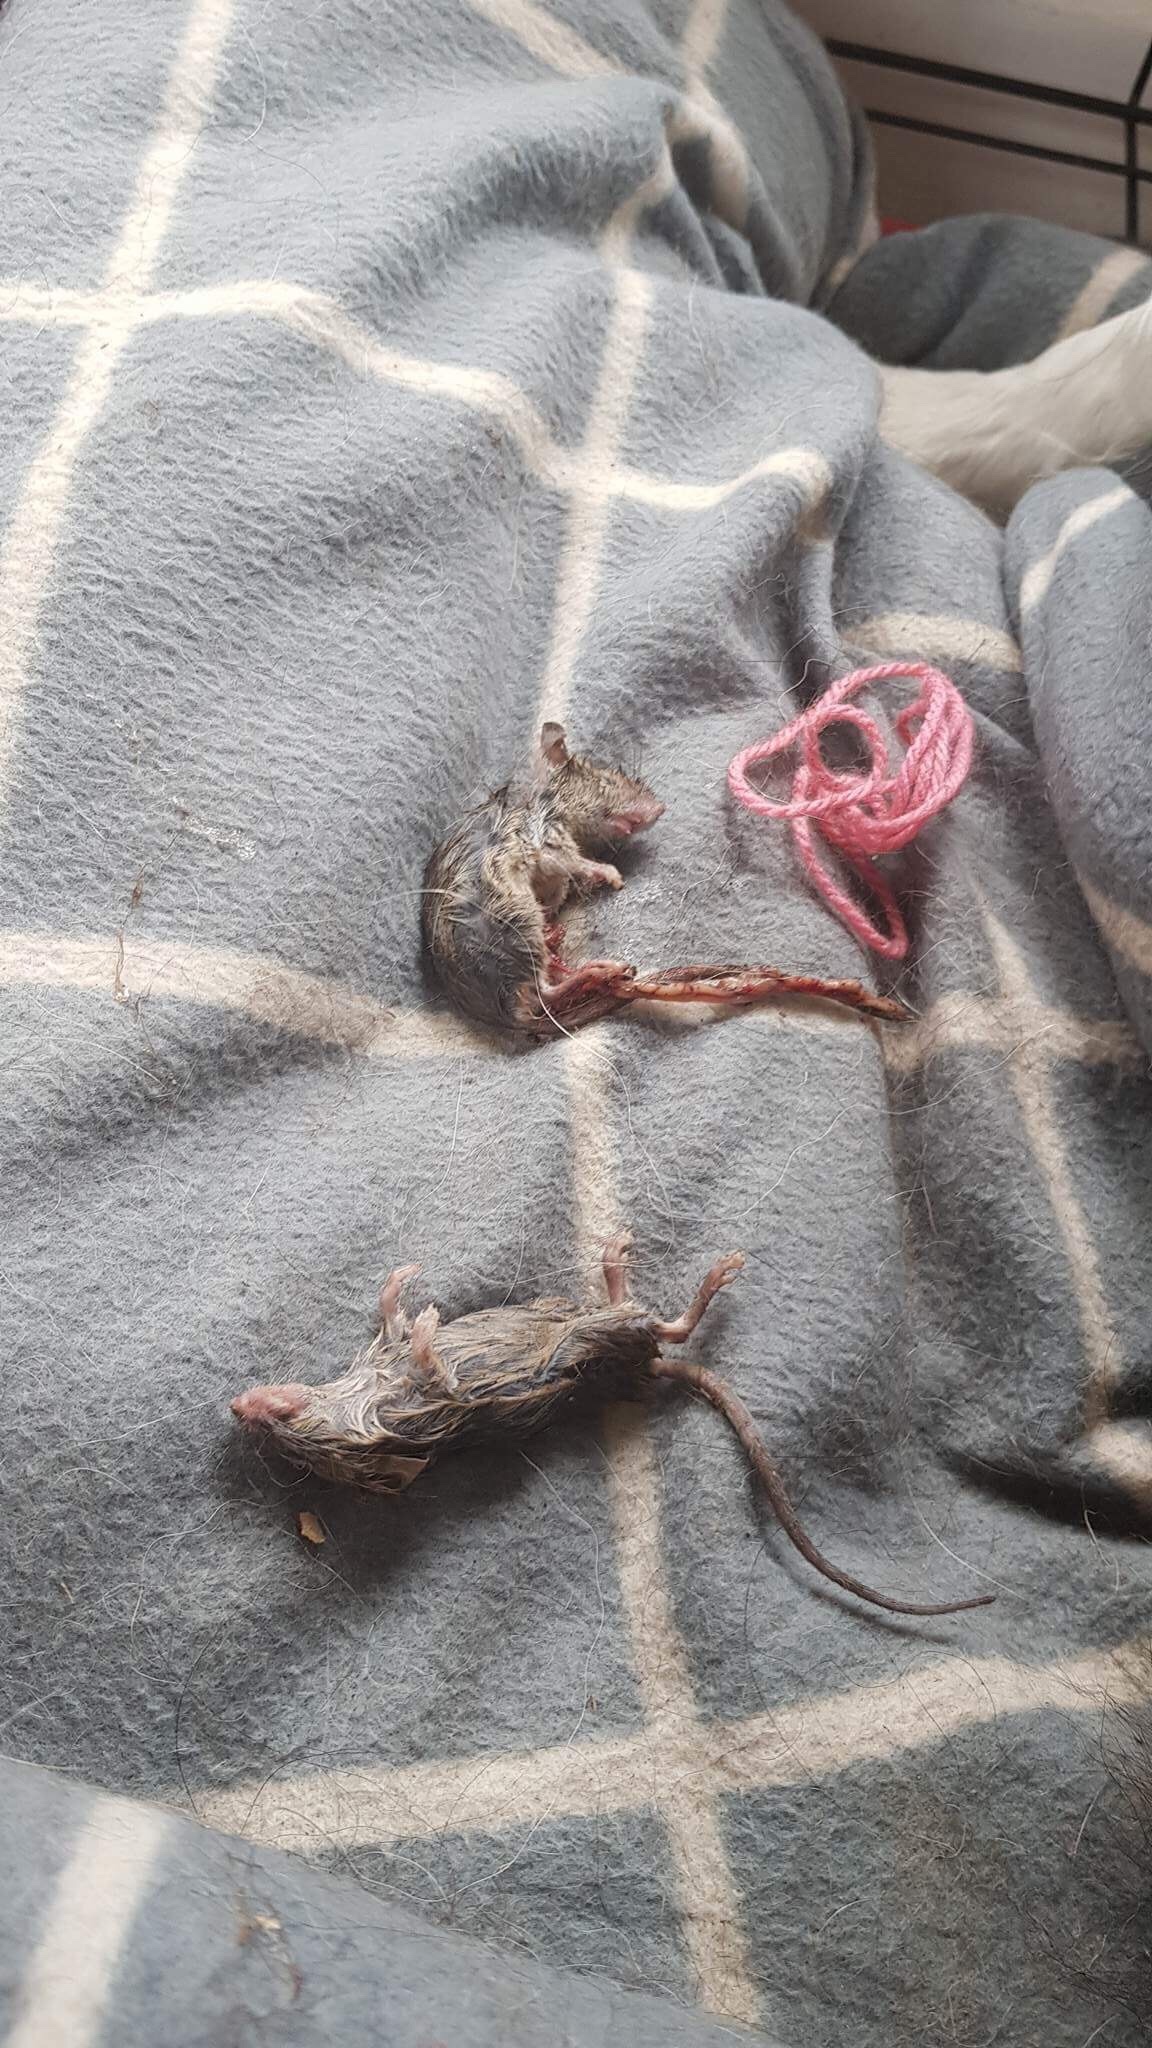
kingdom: Animalia
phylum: Chordata
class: Mammalia
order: Rodentia
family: Muridae
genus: Mus
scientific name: Mus musculus
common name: House mouse
